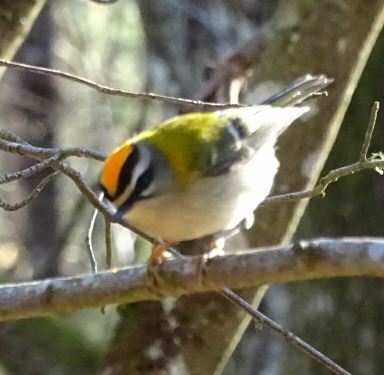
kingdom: Animalia
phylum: Chordata
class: Aves
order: Passeriformes
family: Regulidae
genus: Regulus
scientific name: Regulus ignicapilla
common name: Firecrest
